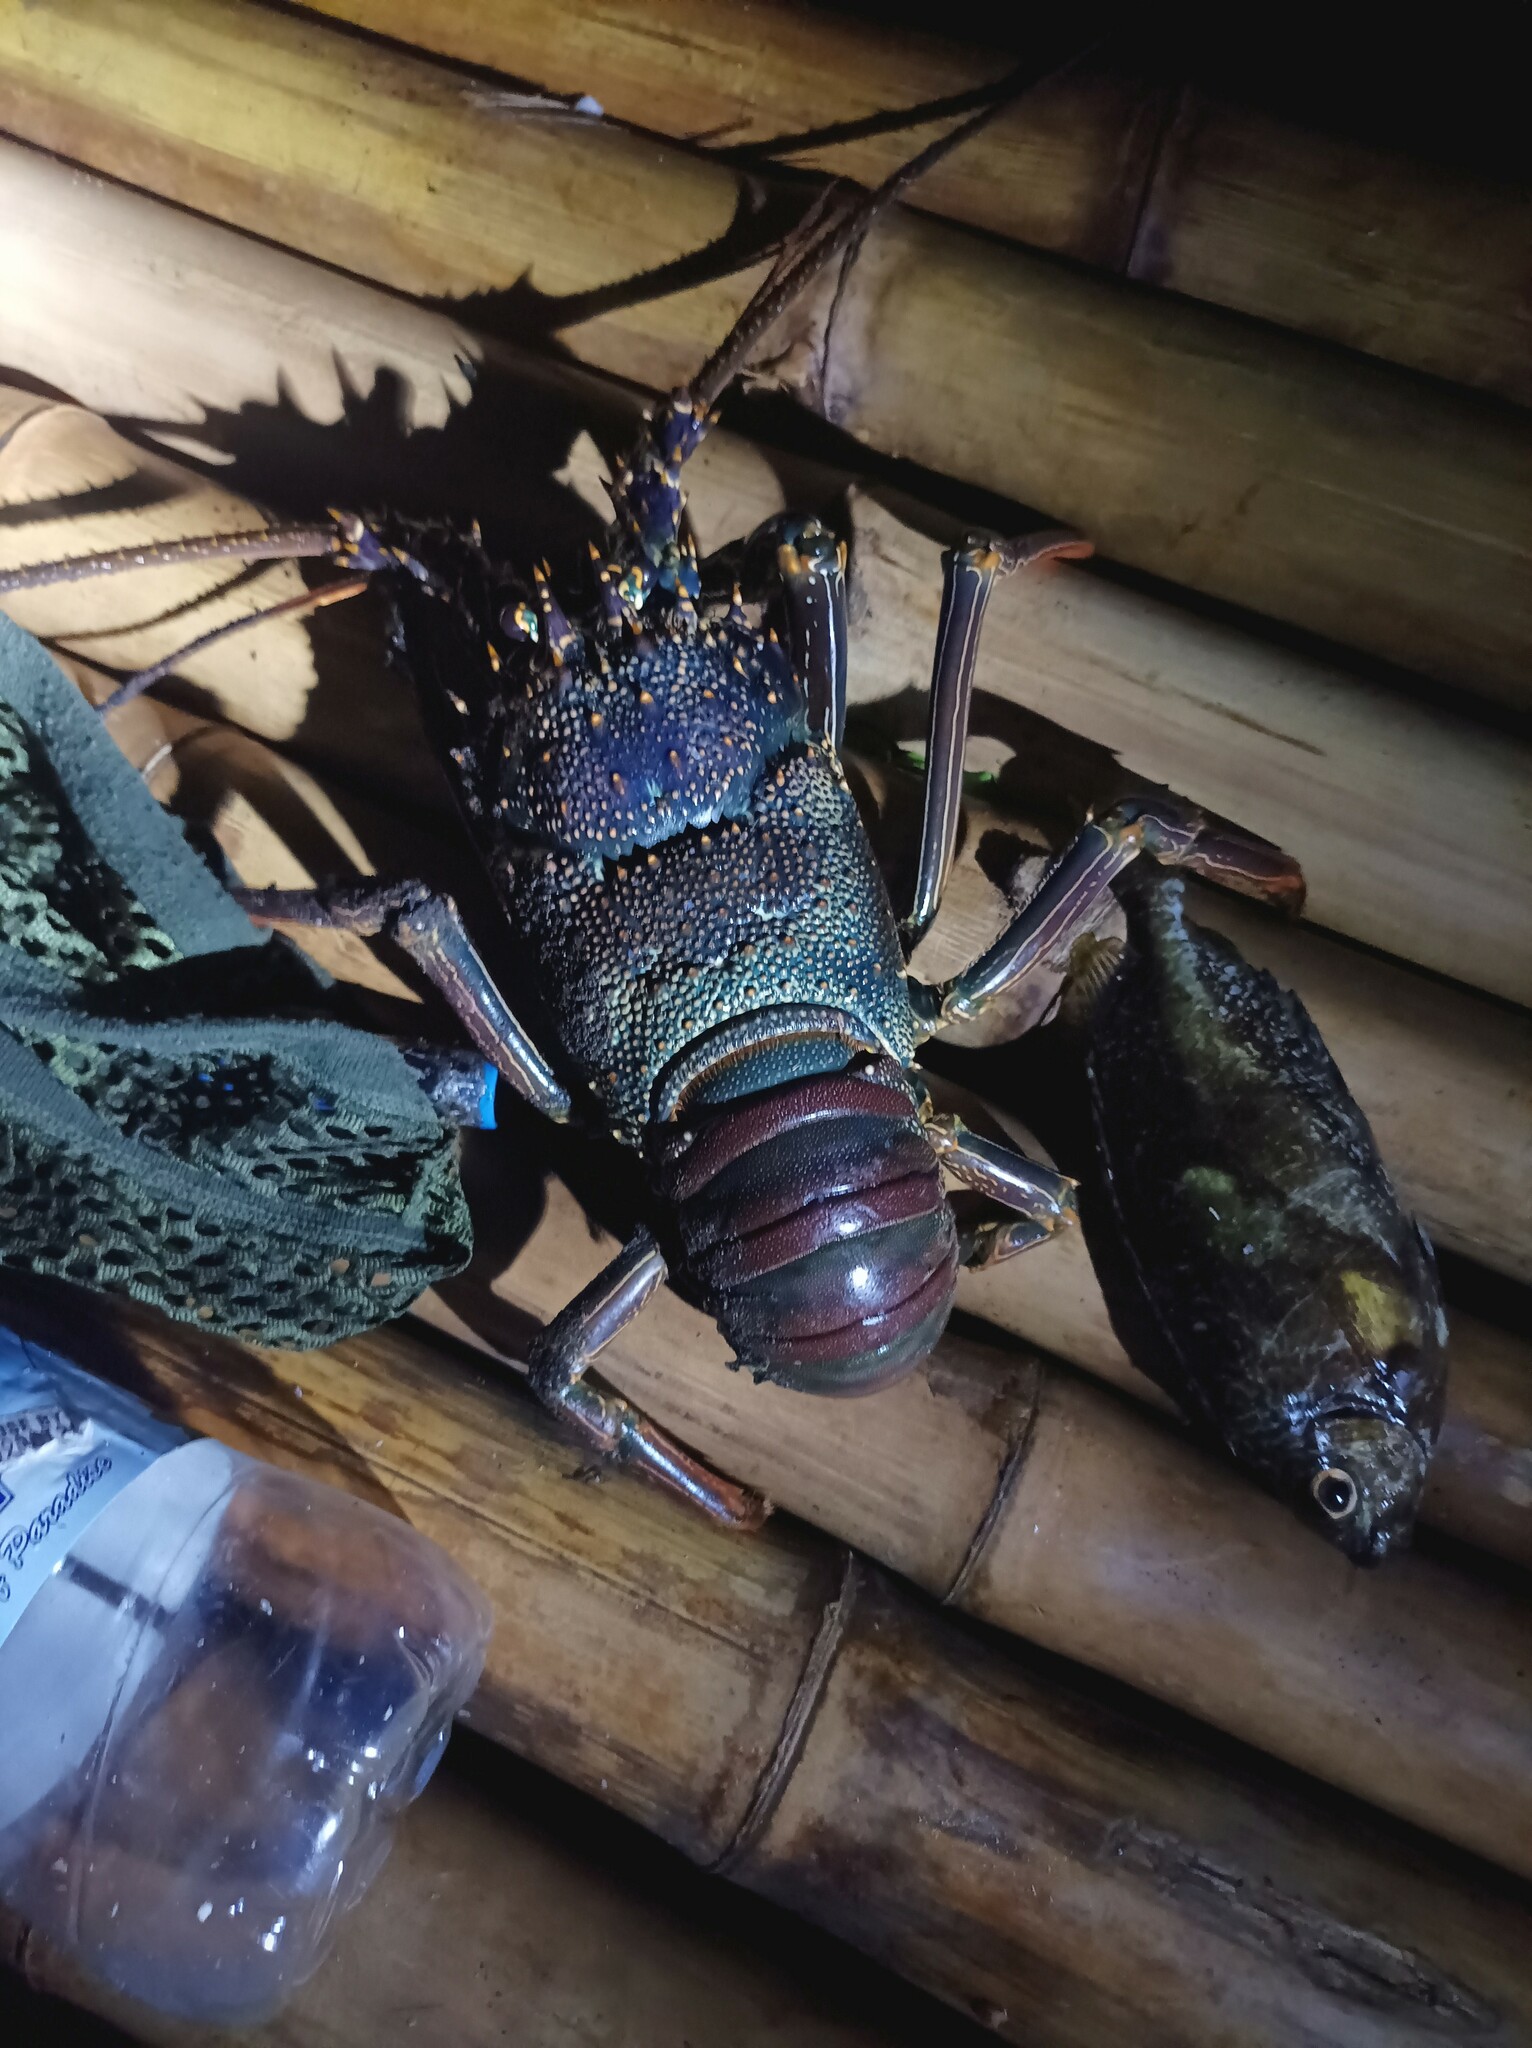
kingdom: Animalia
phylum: Arthropoda
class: Malacostraca
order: Decapoda
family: Palinuridae
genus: Panulirus
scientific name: Panulirus penicillatus
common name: Pronghorn spiny lobster
